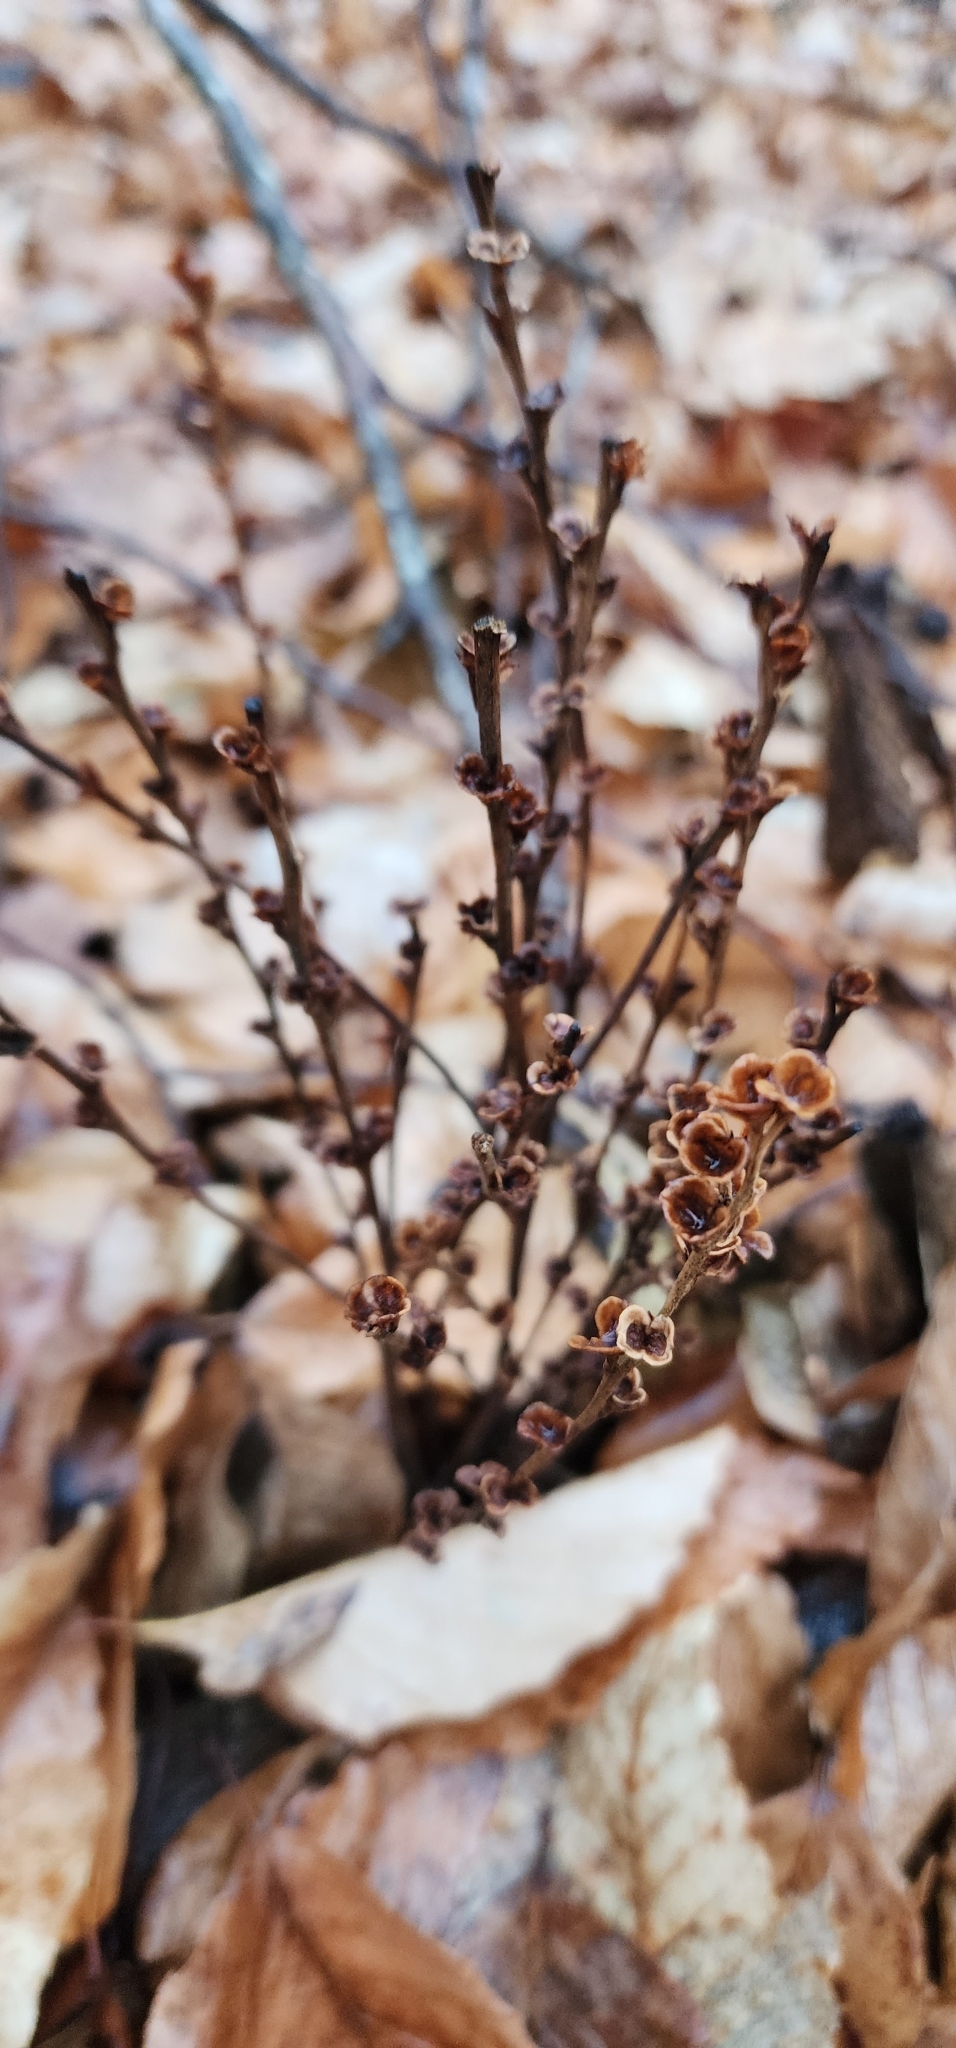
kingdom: Plantae
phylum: Tracheophyta
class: Magnoliopsida
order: Lamiales
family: Orobanchaceae
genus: Epifagus
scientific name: Epifagus virginiana
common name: Beechdrops
